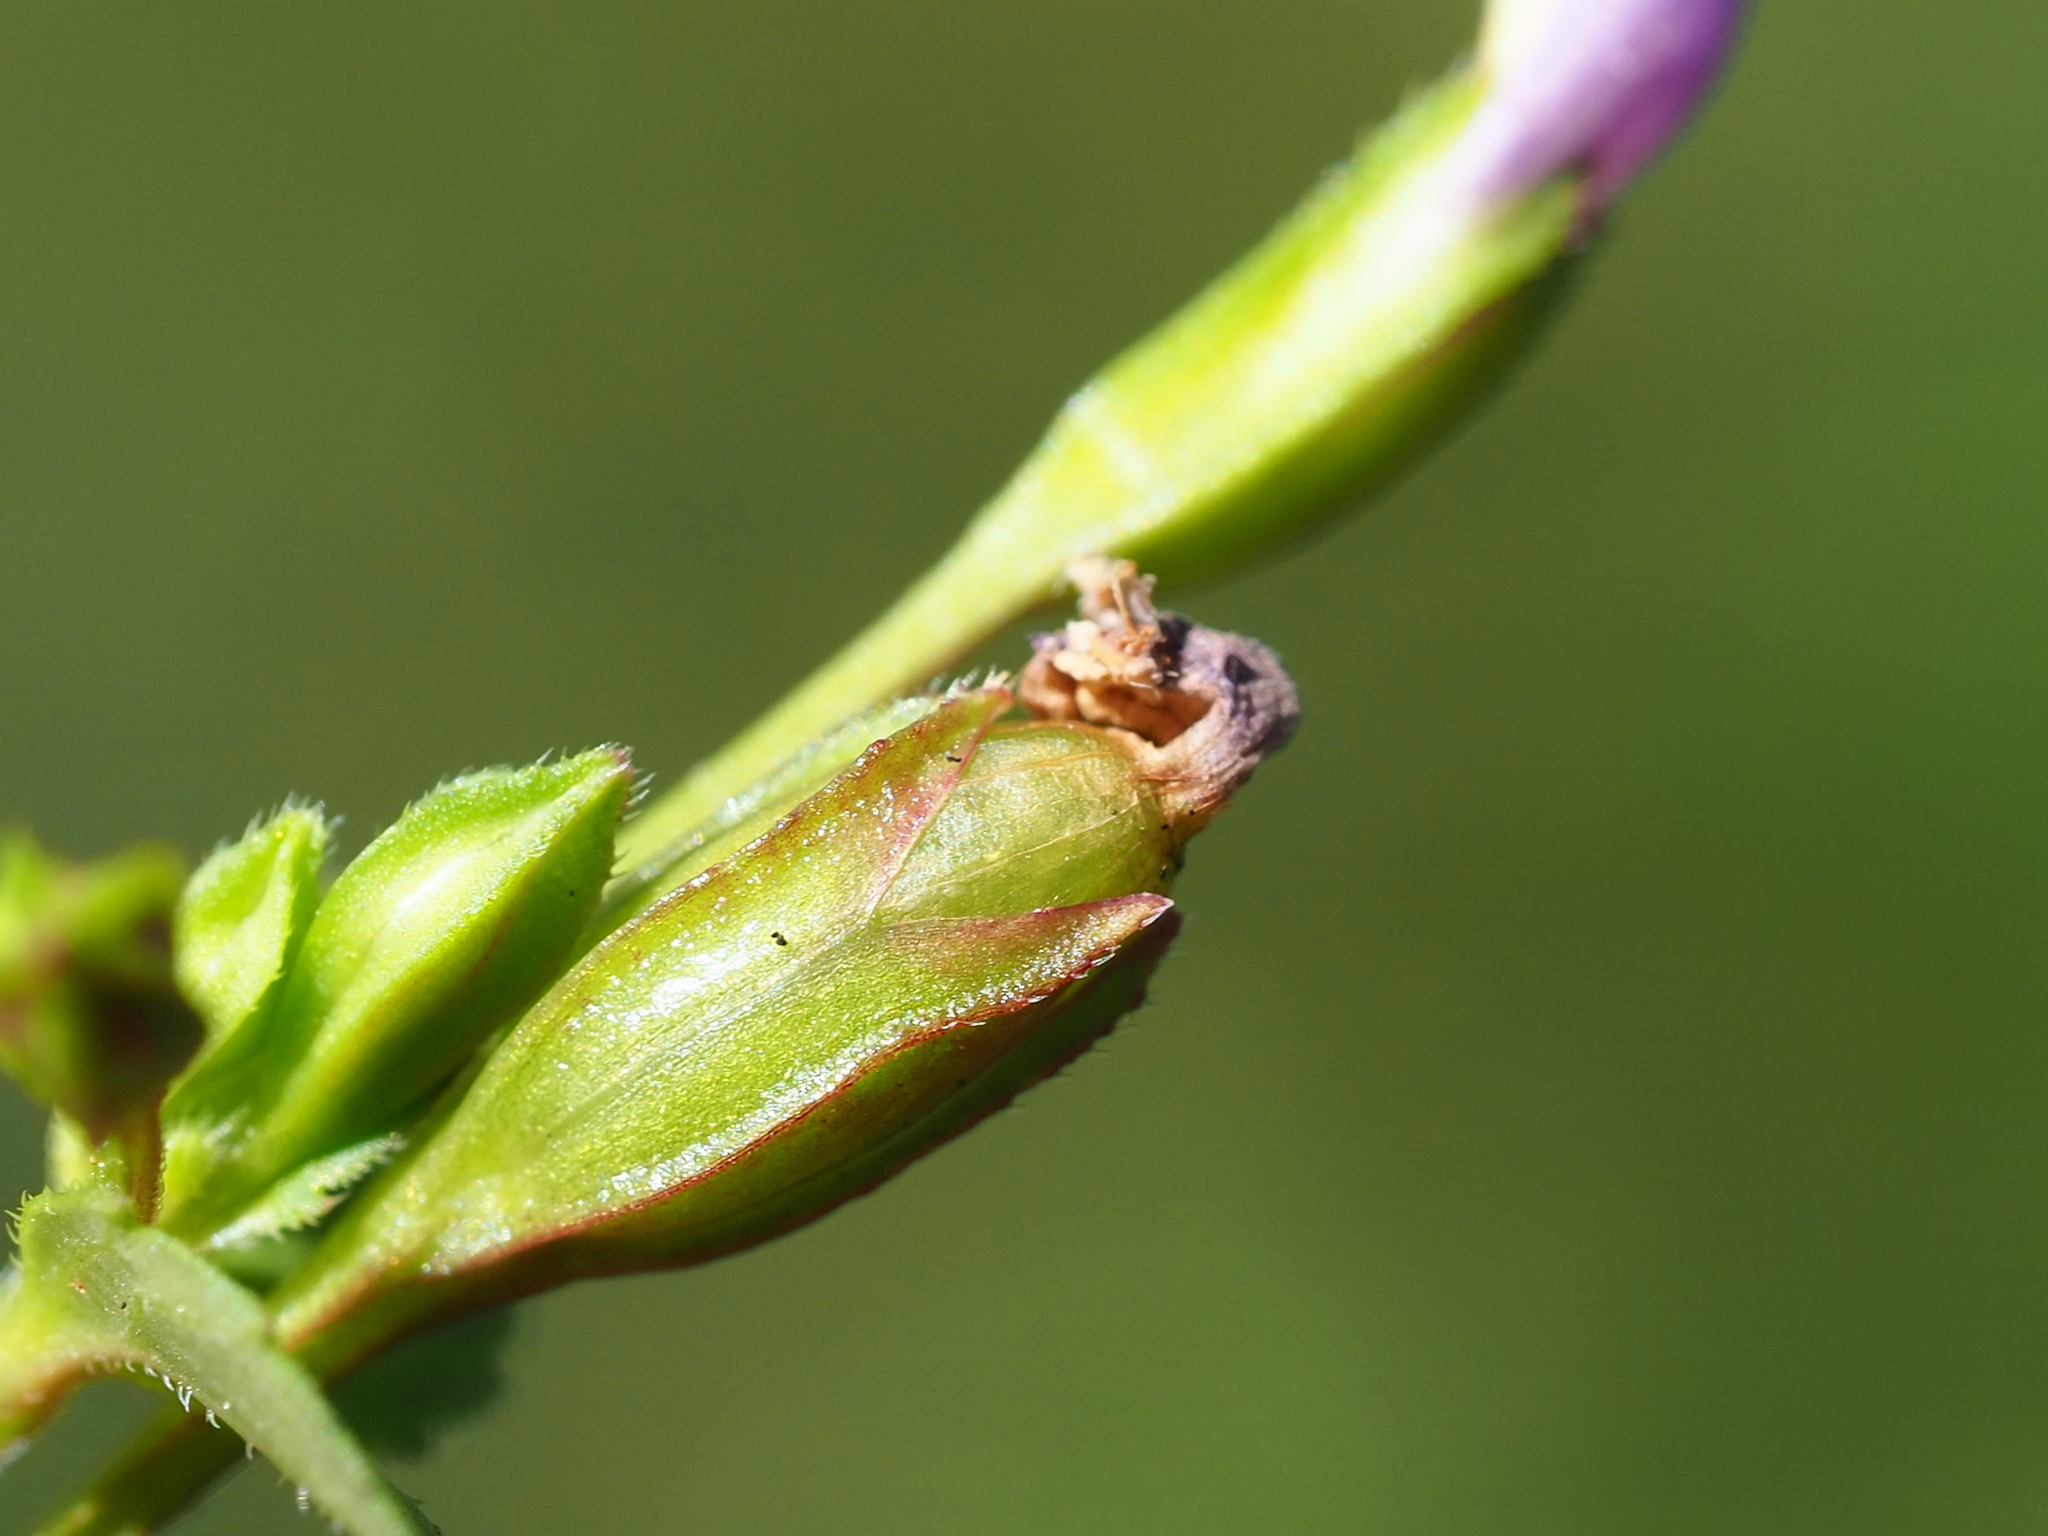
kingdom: Plantae
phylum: Tracheophyta
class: Magnoliopsida
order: Lamiales
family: Linderniaceae
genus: Torenia
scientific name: Torenia crustacea
